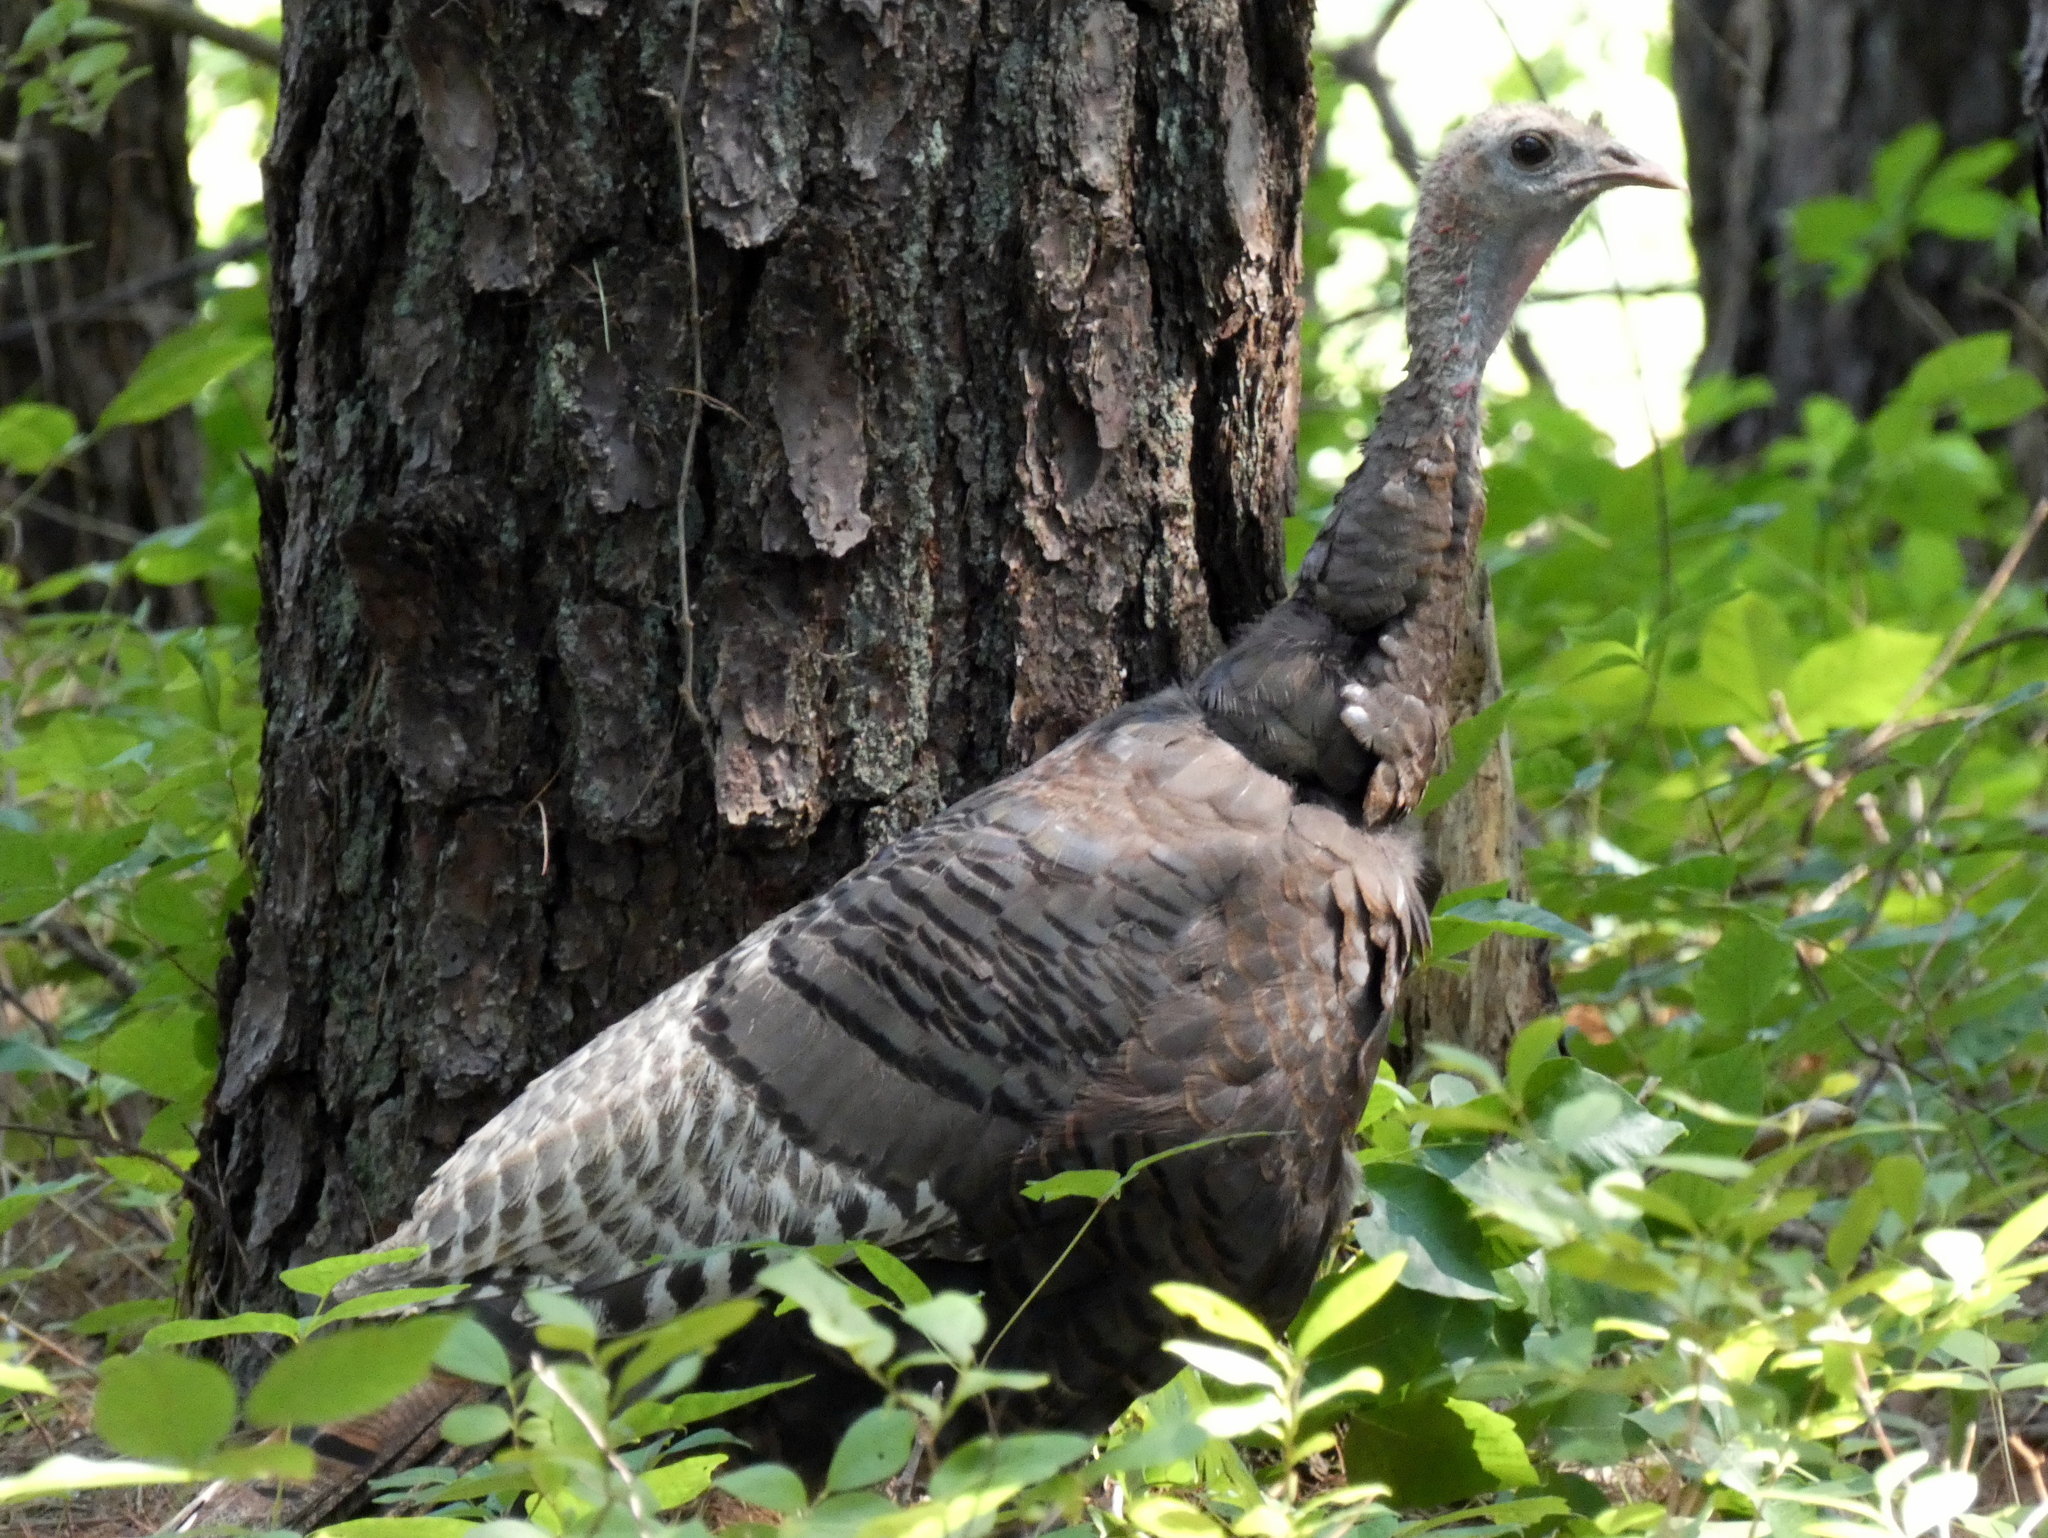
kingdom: Animalia
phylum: Chordata
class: Aves
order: Galliformes
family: Phasianidae
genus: Meleagris
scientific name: Meleagris gallopavo
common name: Wild turkey
